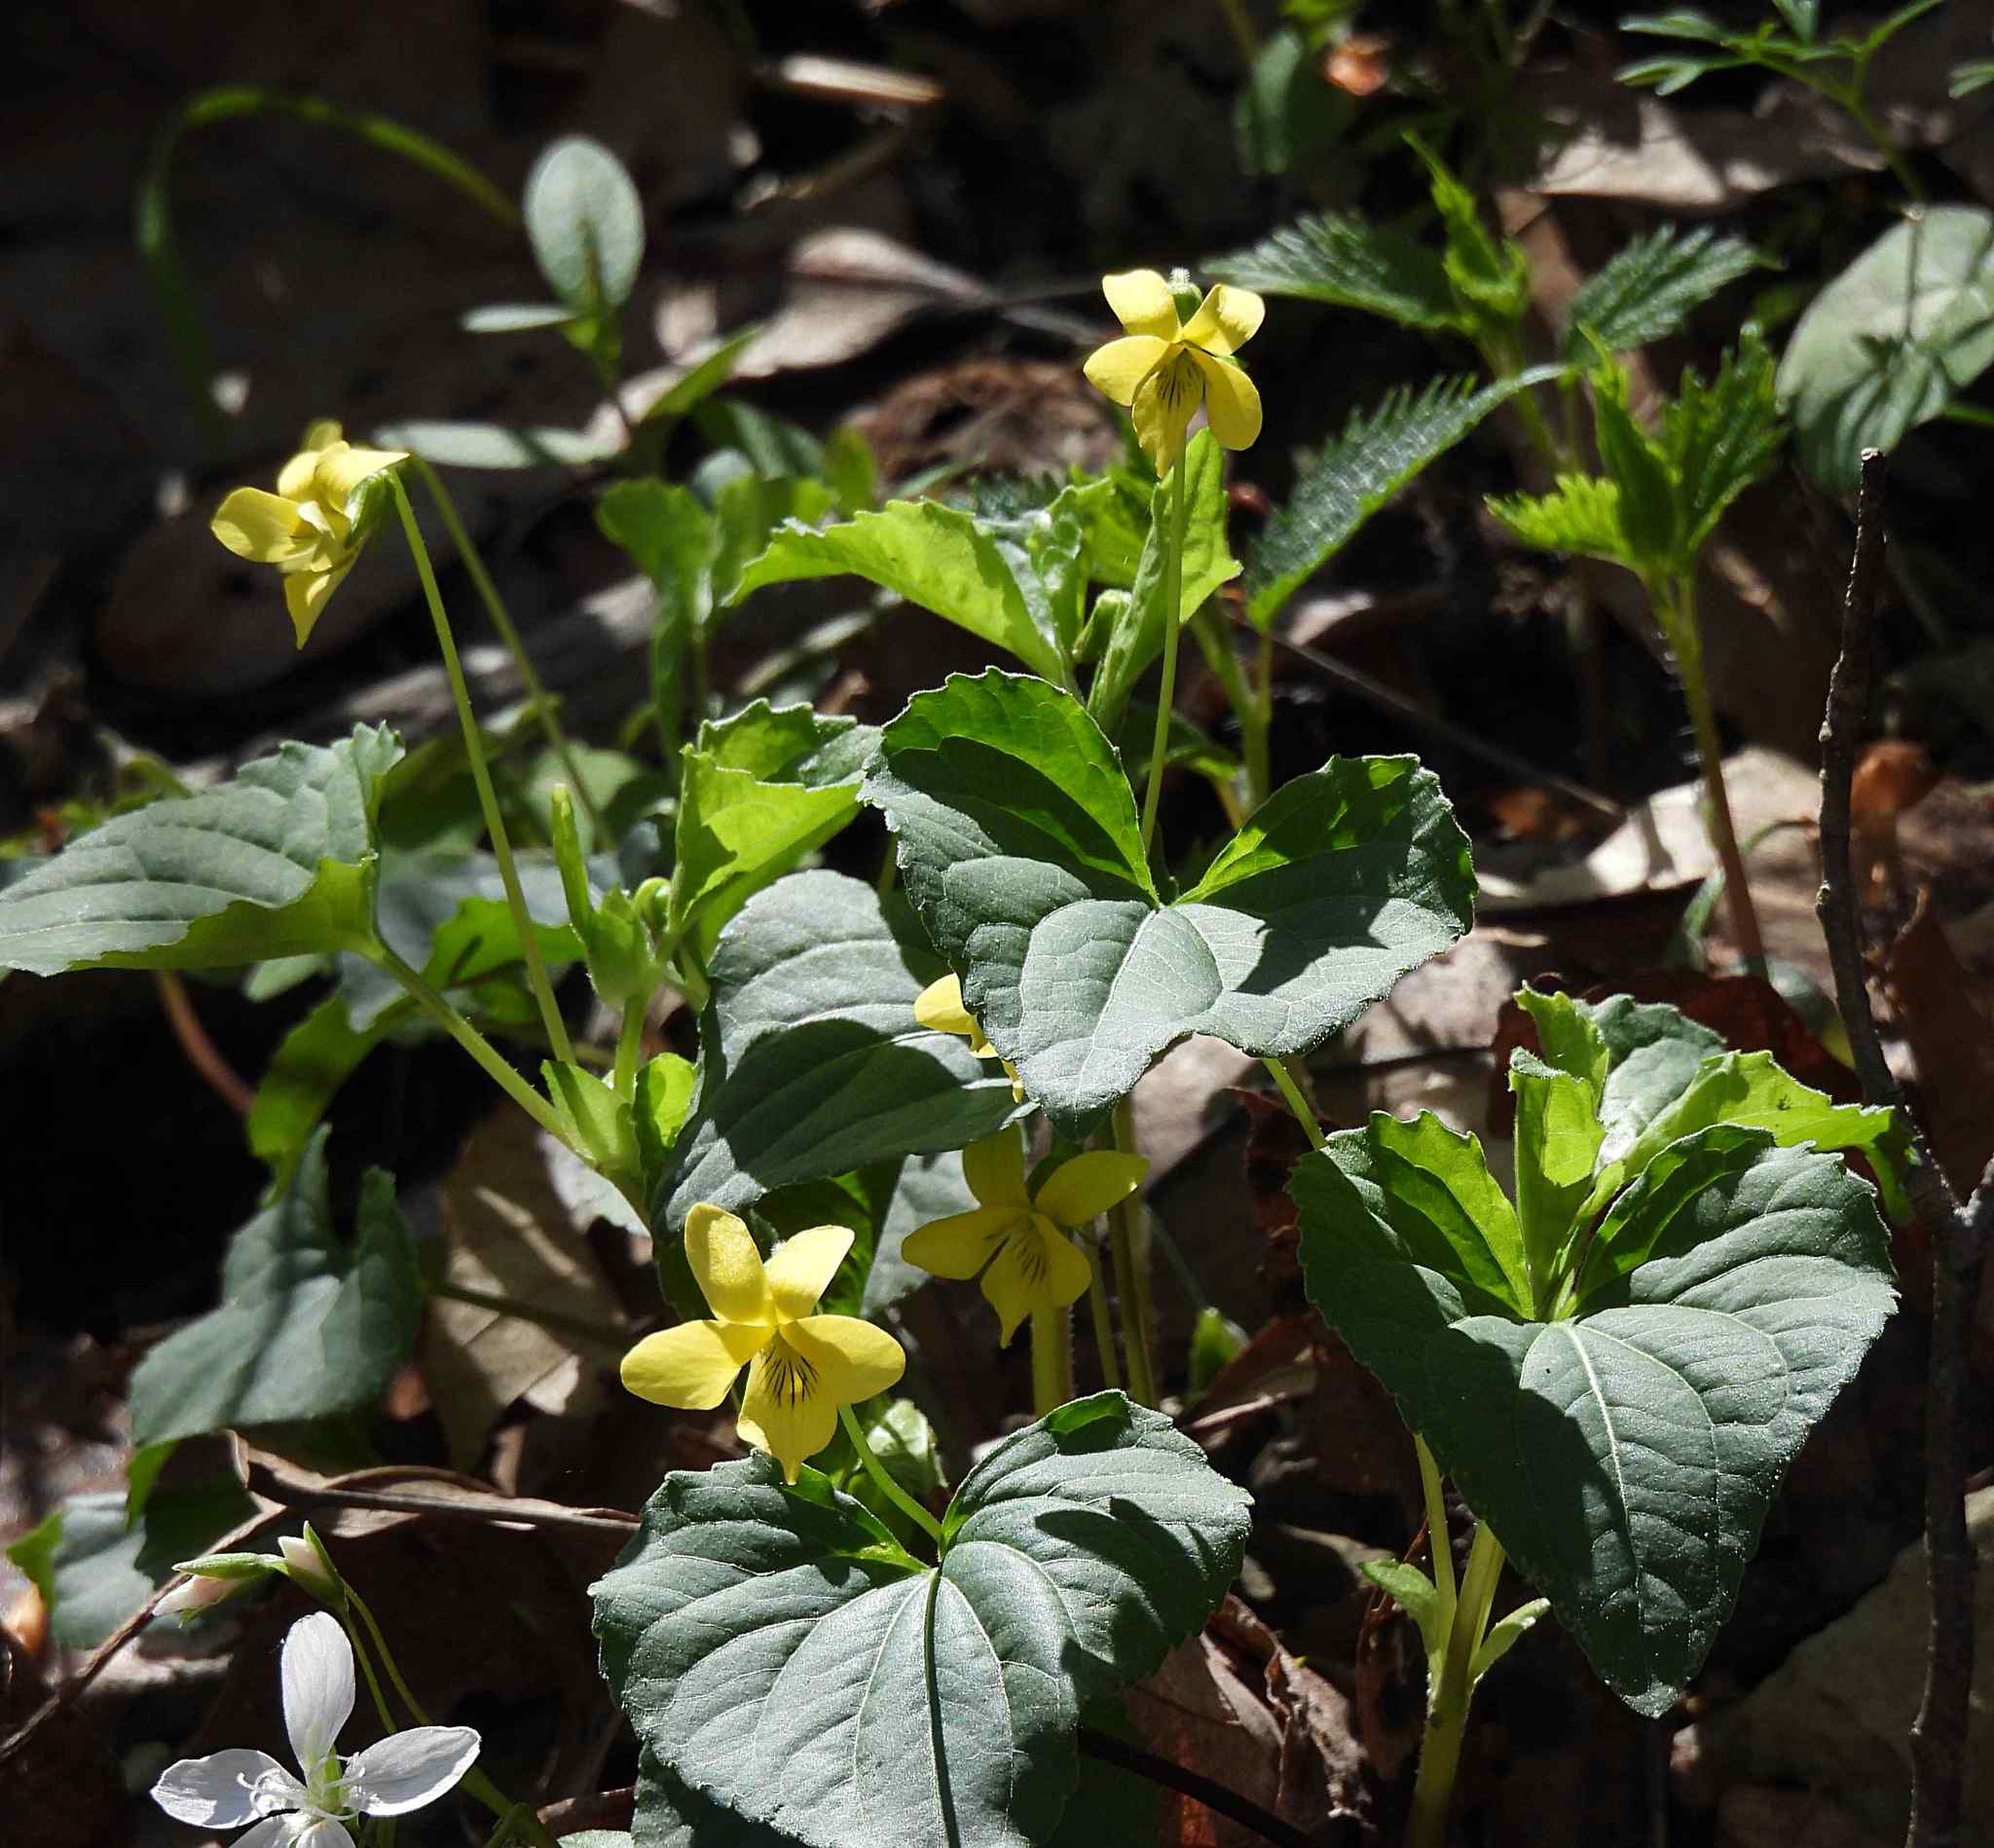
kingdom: Plantae
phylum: Tracheophyta
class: Magnoliopsida
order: Malpighiales
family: Violaceae
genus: Viola
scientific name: Viola eriocarpa
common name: Smooth yellow violet
